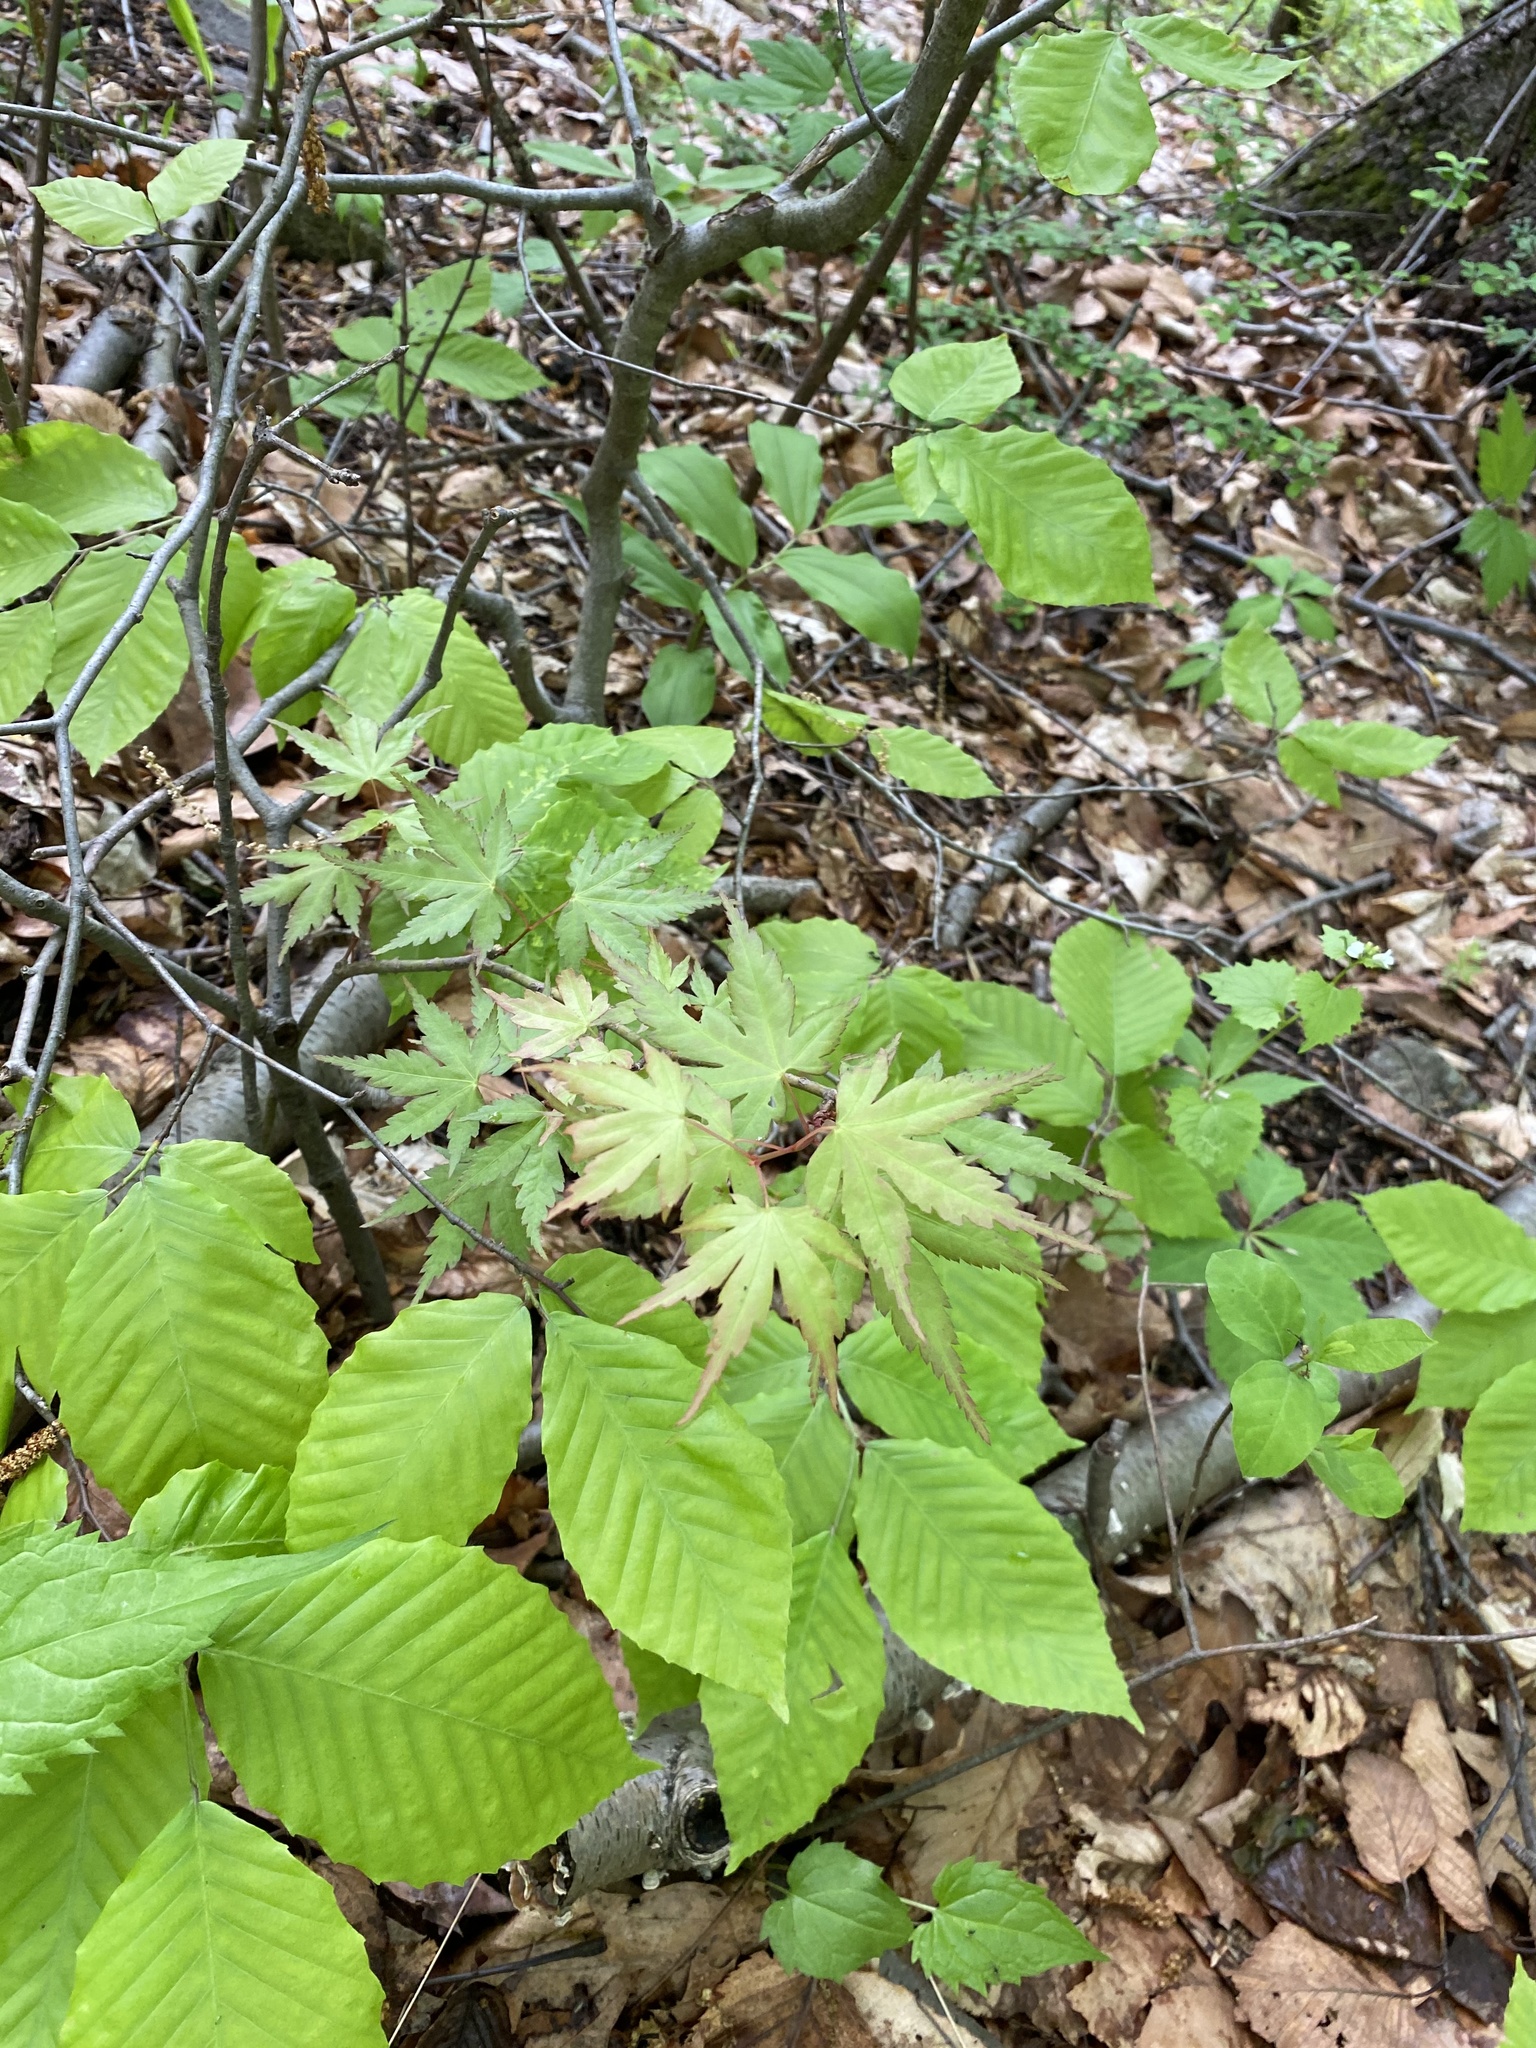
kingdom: Plantae
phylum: Tracheophyta
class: Magnoliopsida
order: Sapindales
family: Sapindaceae
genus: Acer
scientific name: Acer palmatum
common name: Japanese maple
